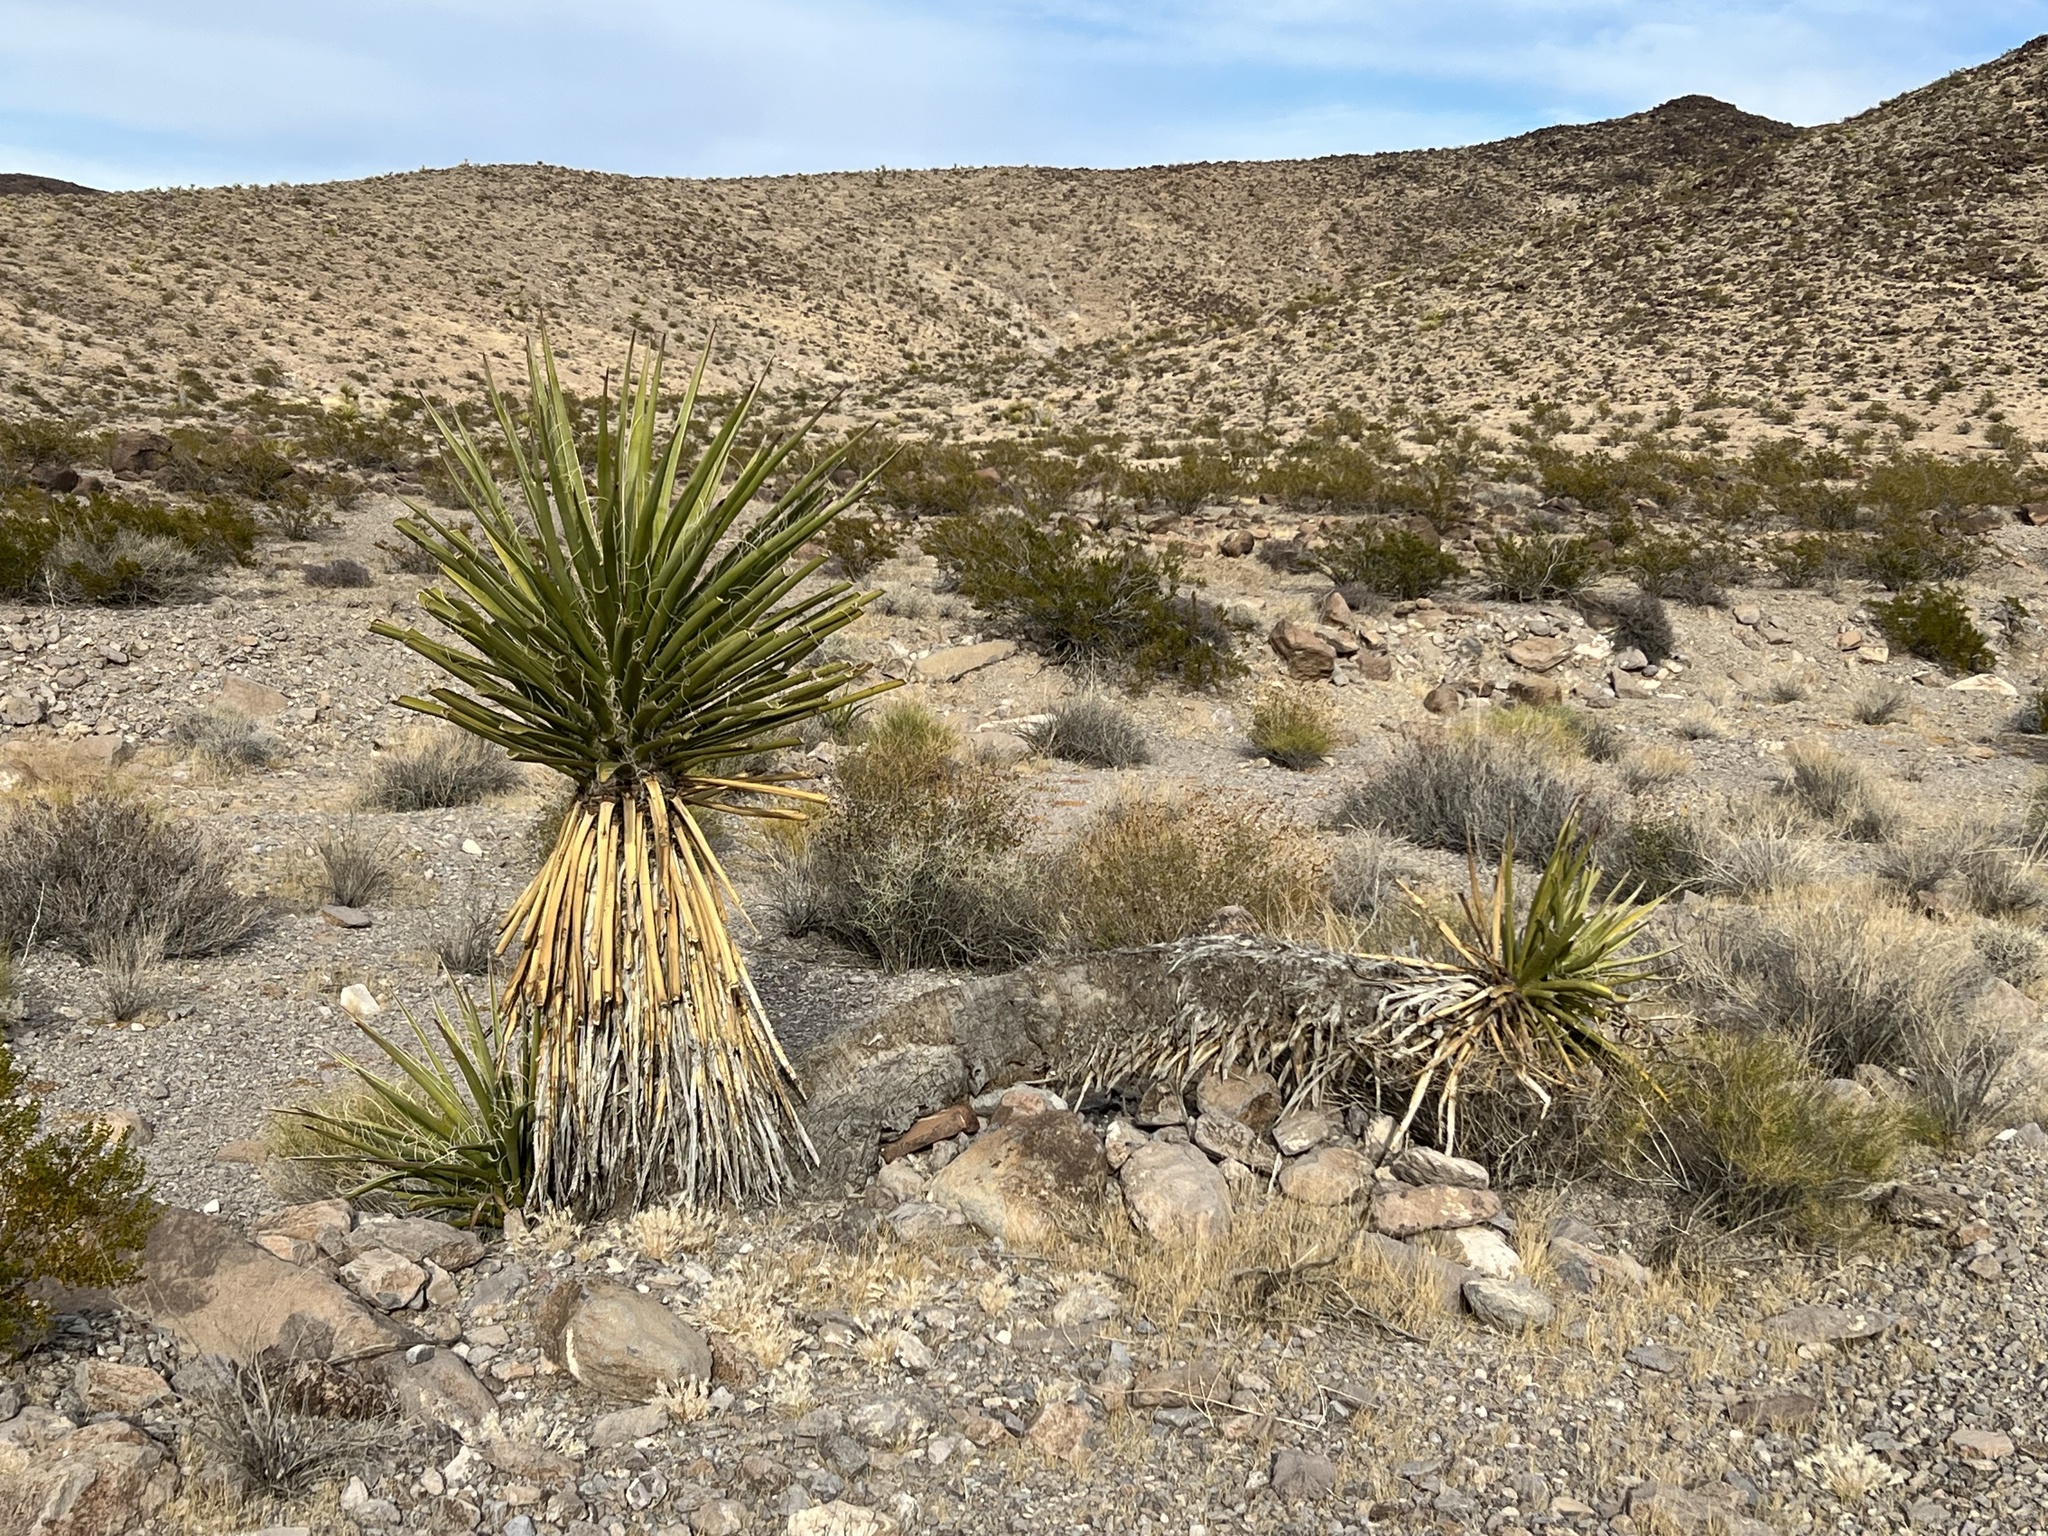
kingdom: Plantae
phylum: Tracheophyta
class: Liliopsida
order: Asparagales
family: Asparagaceae
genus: Yucca
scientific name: Yucca schidigera
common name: Mojave yucca
